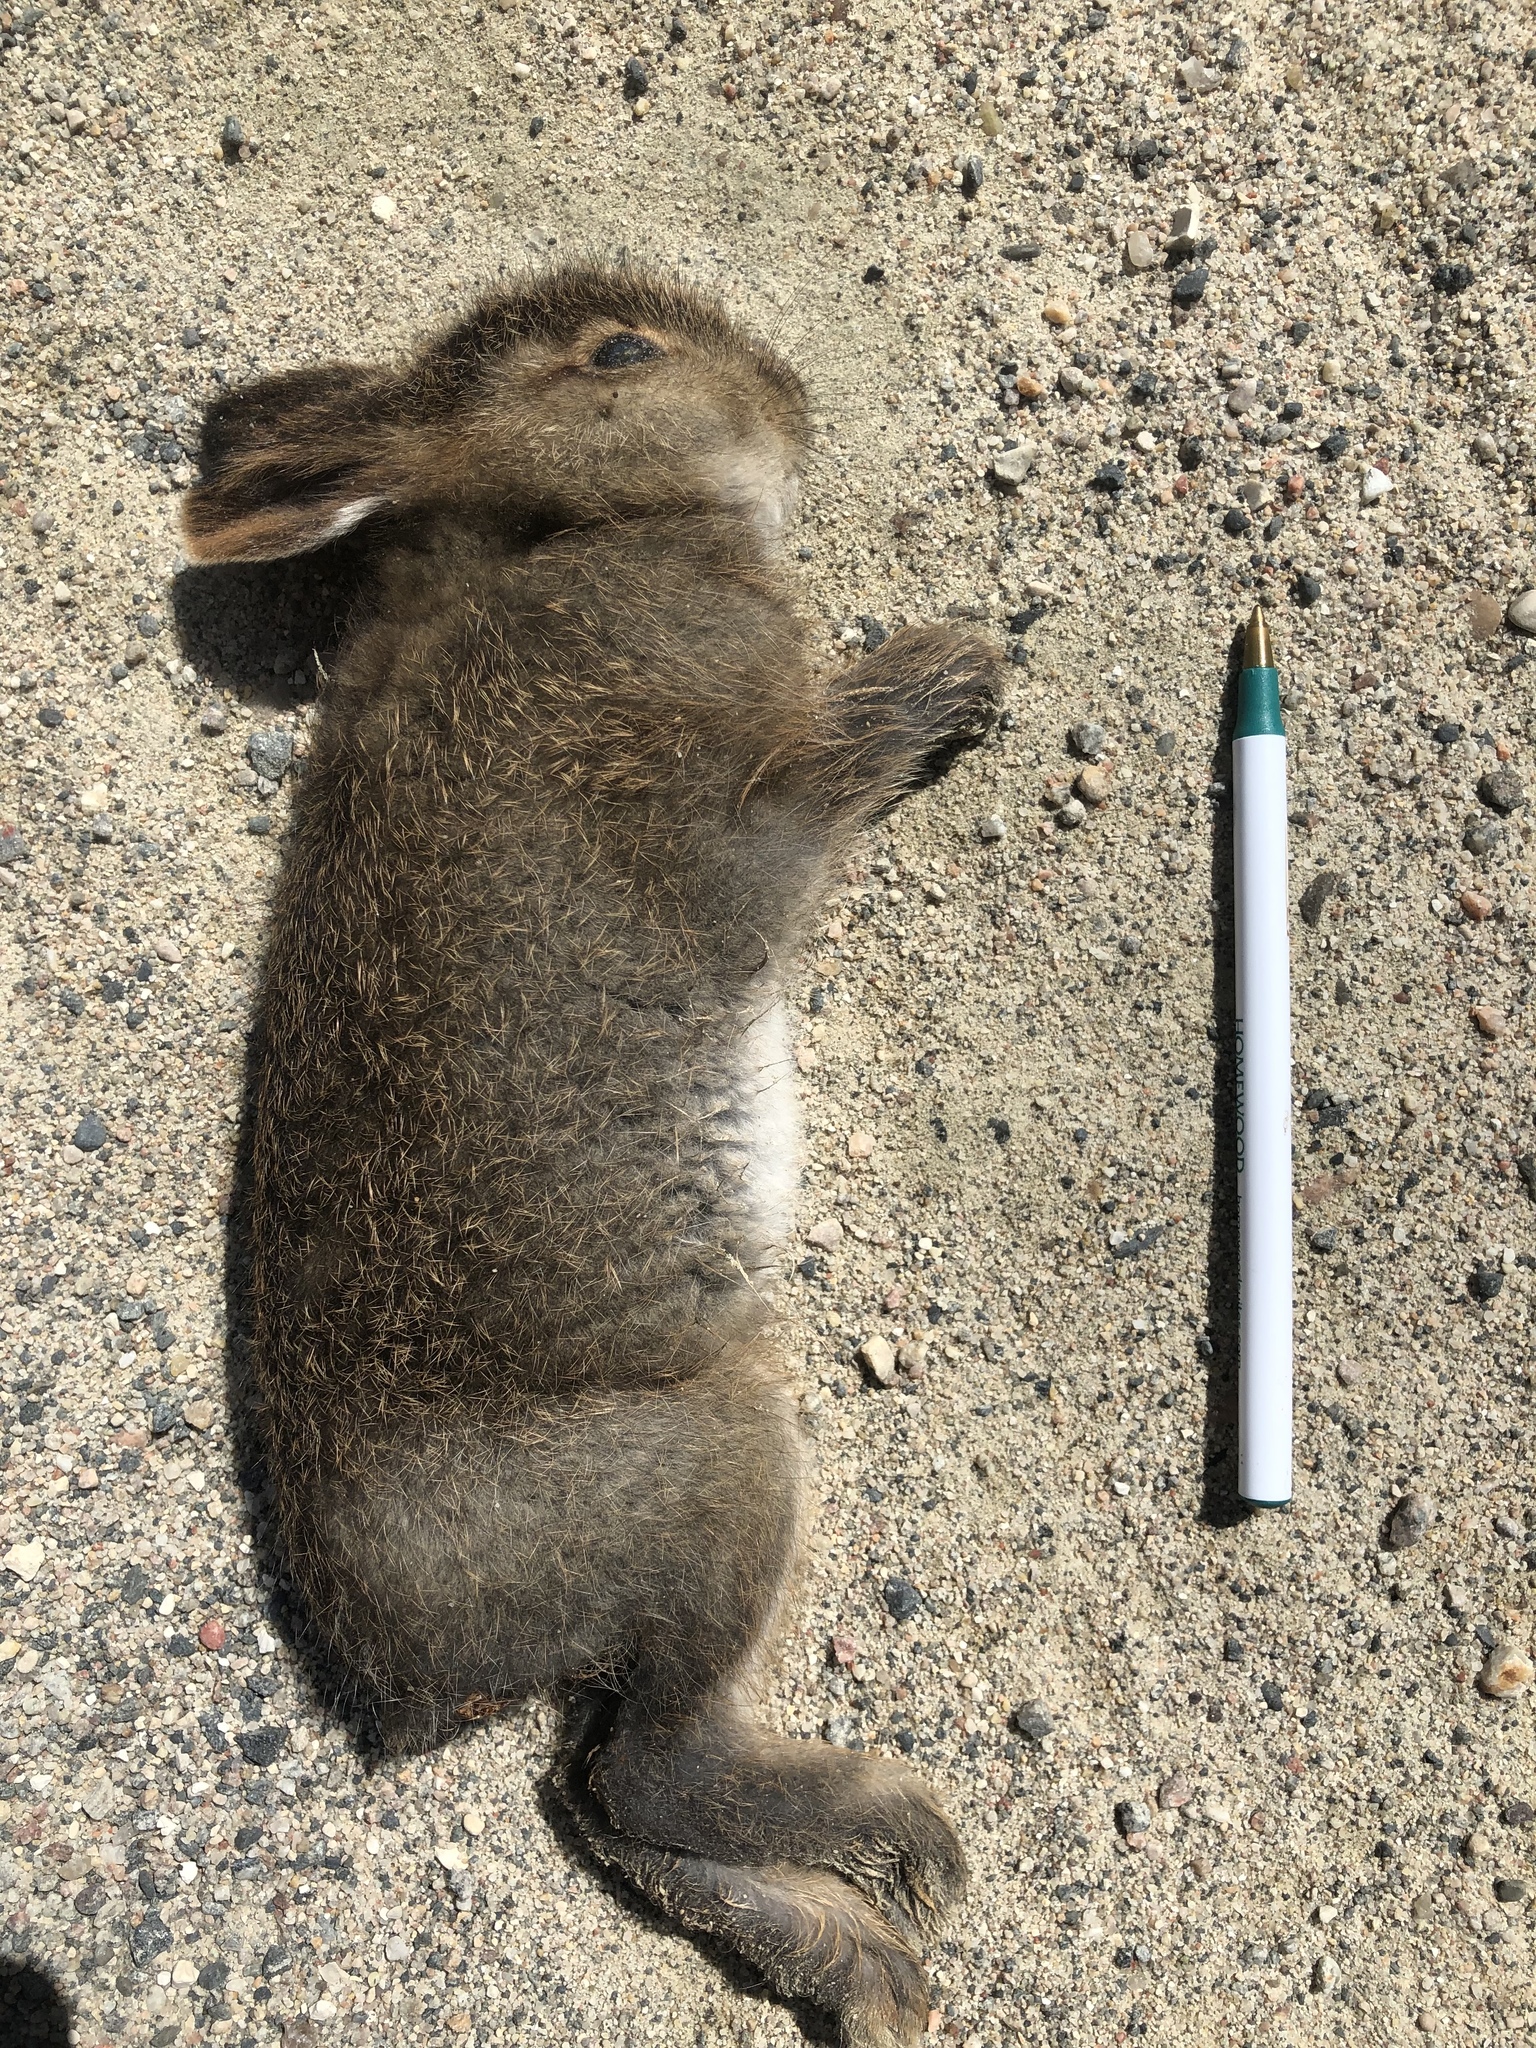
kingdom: Animalia
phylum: Chordata
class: Mammalia
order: Lagomorpha
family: Leporidae
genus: Lepus
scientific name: Lepus americanus
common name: Snowshoe hare
